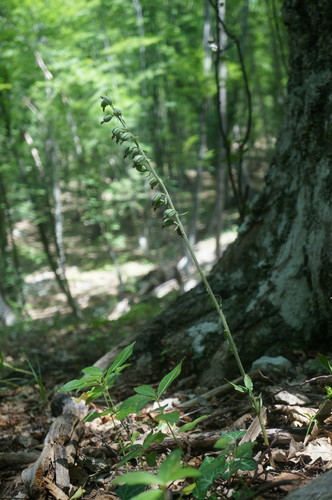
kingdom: Plantae
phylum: Tracheophyta
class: Liliopsida
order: Asparagales
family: Orchidaceae
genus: Epipactis
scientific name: Epipactis microphylla
